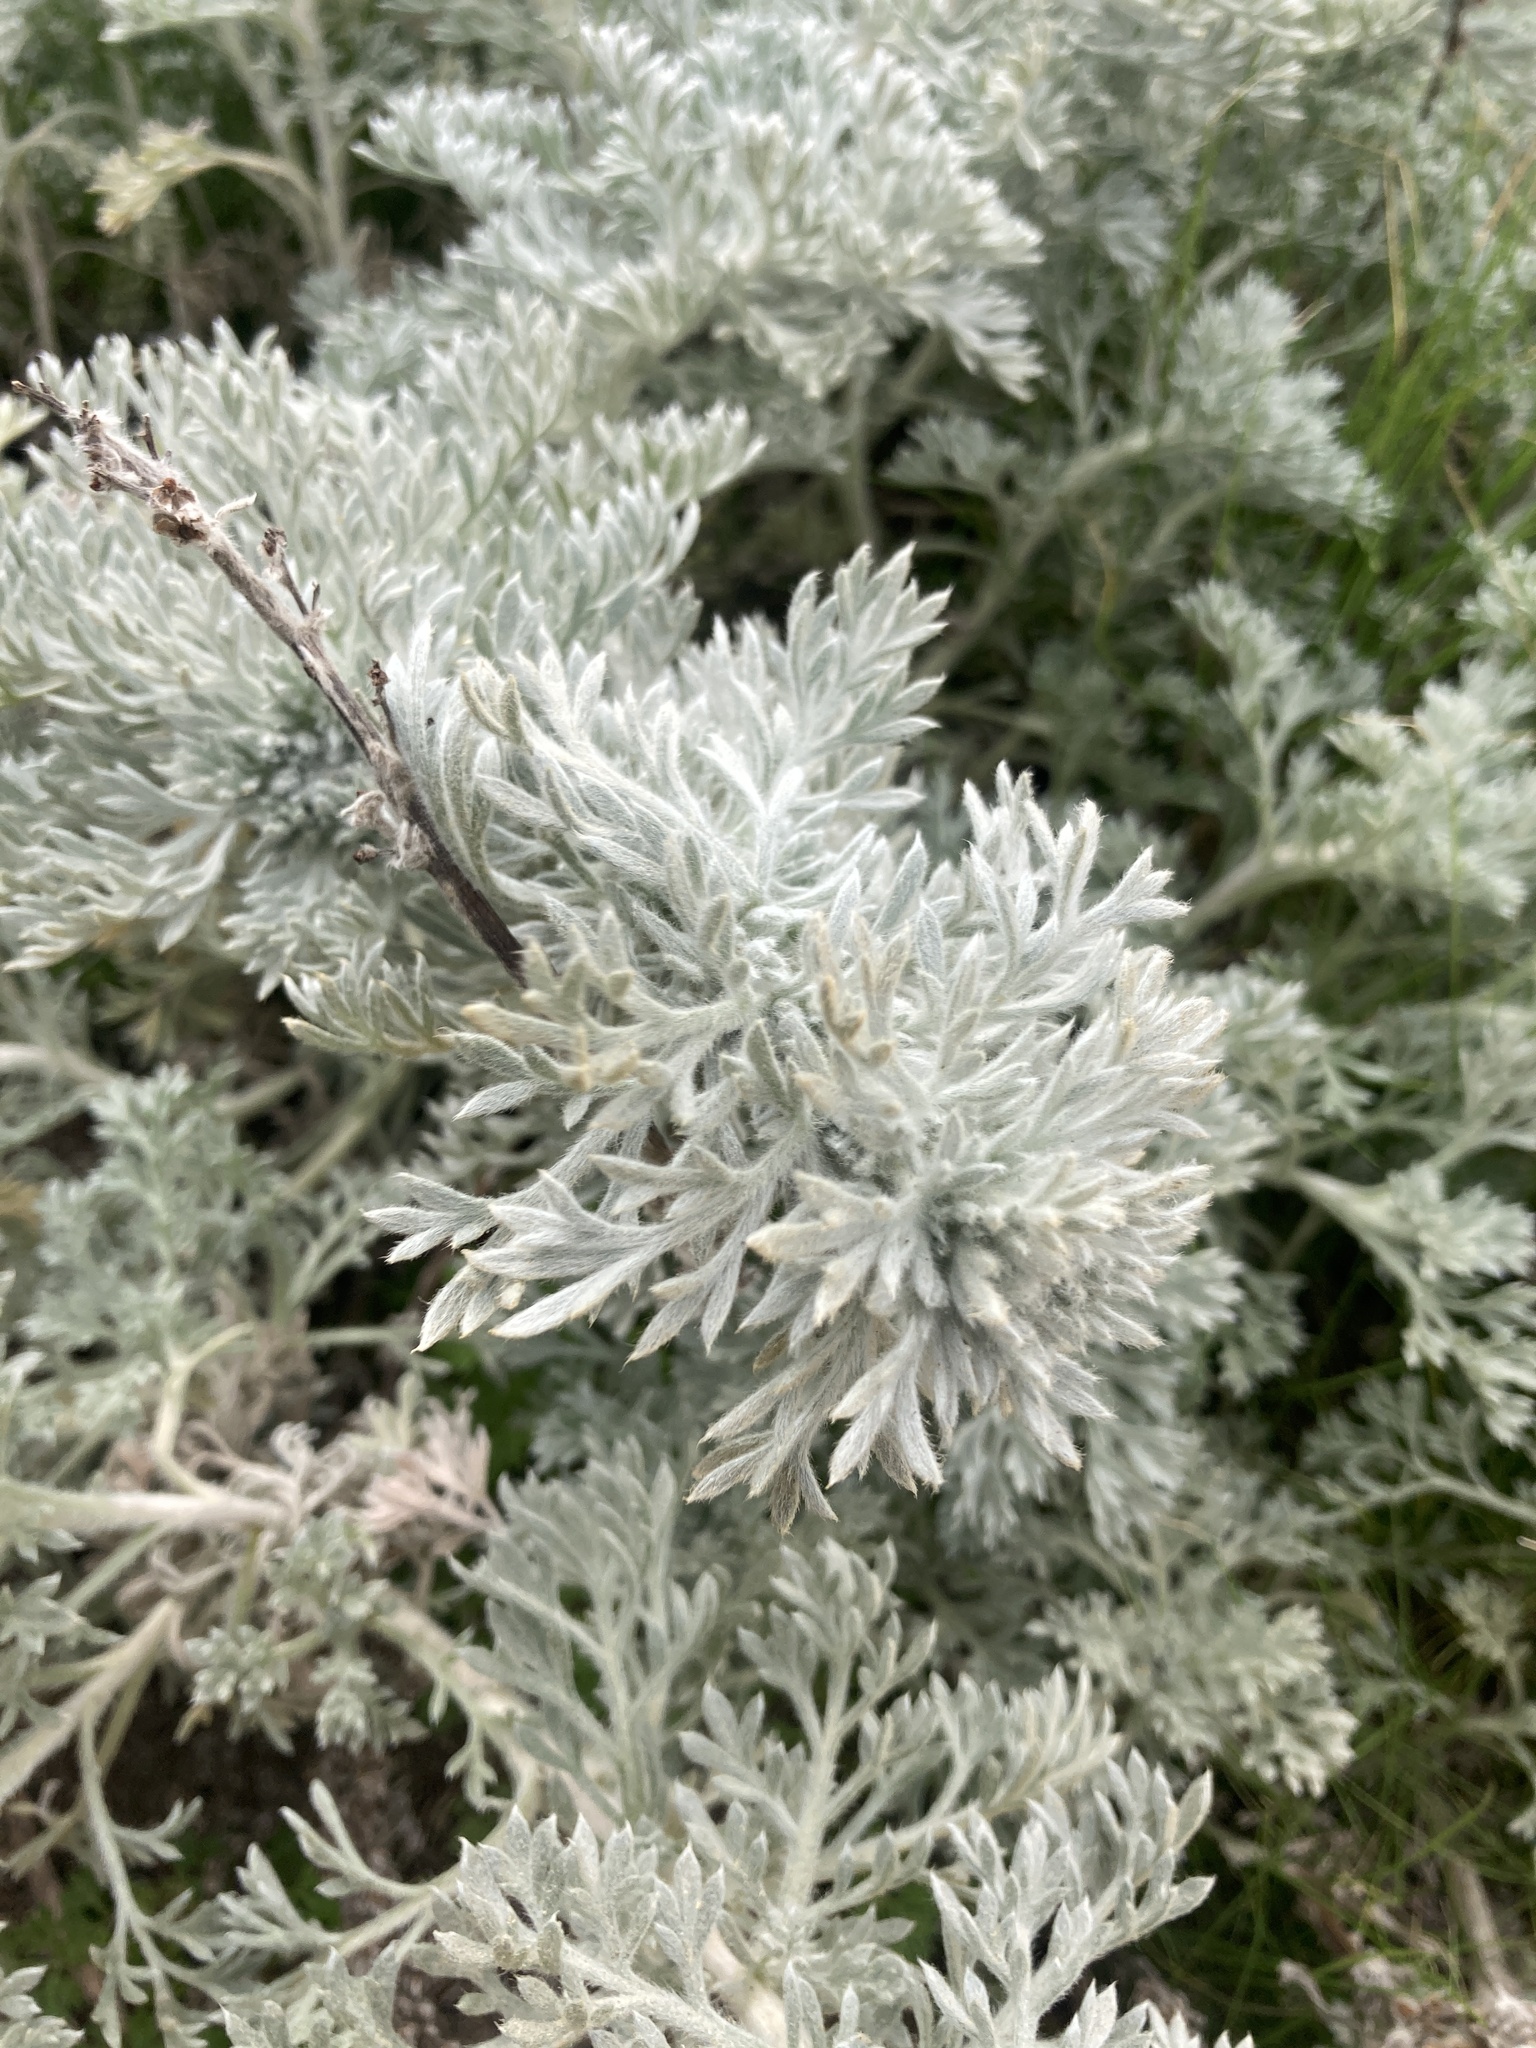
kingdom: Plantae
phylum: Tracheophyta
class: Magnoliopsida
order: Asterales
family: Asteraceae
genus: Artemisia
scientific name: Artemisia pycnocephala
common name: Coastal sagewort
